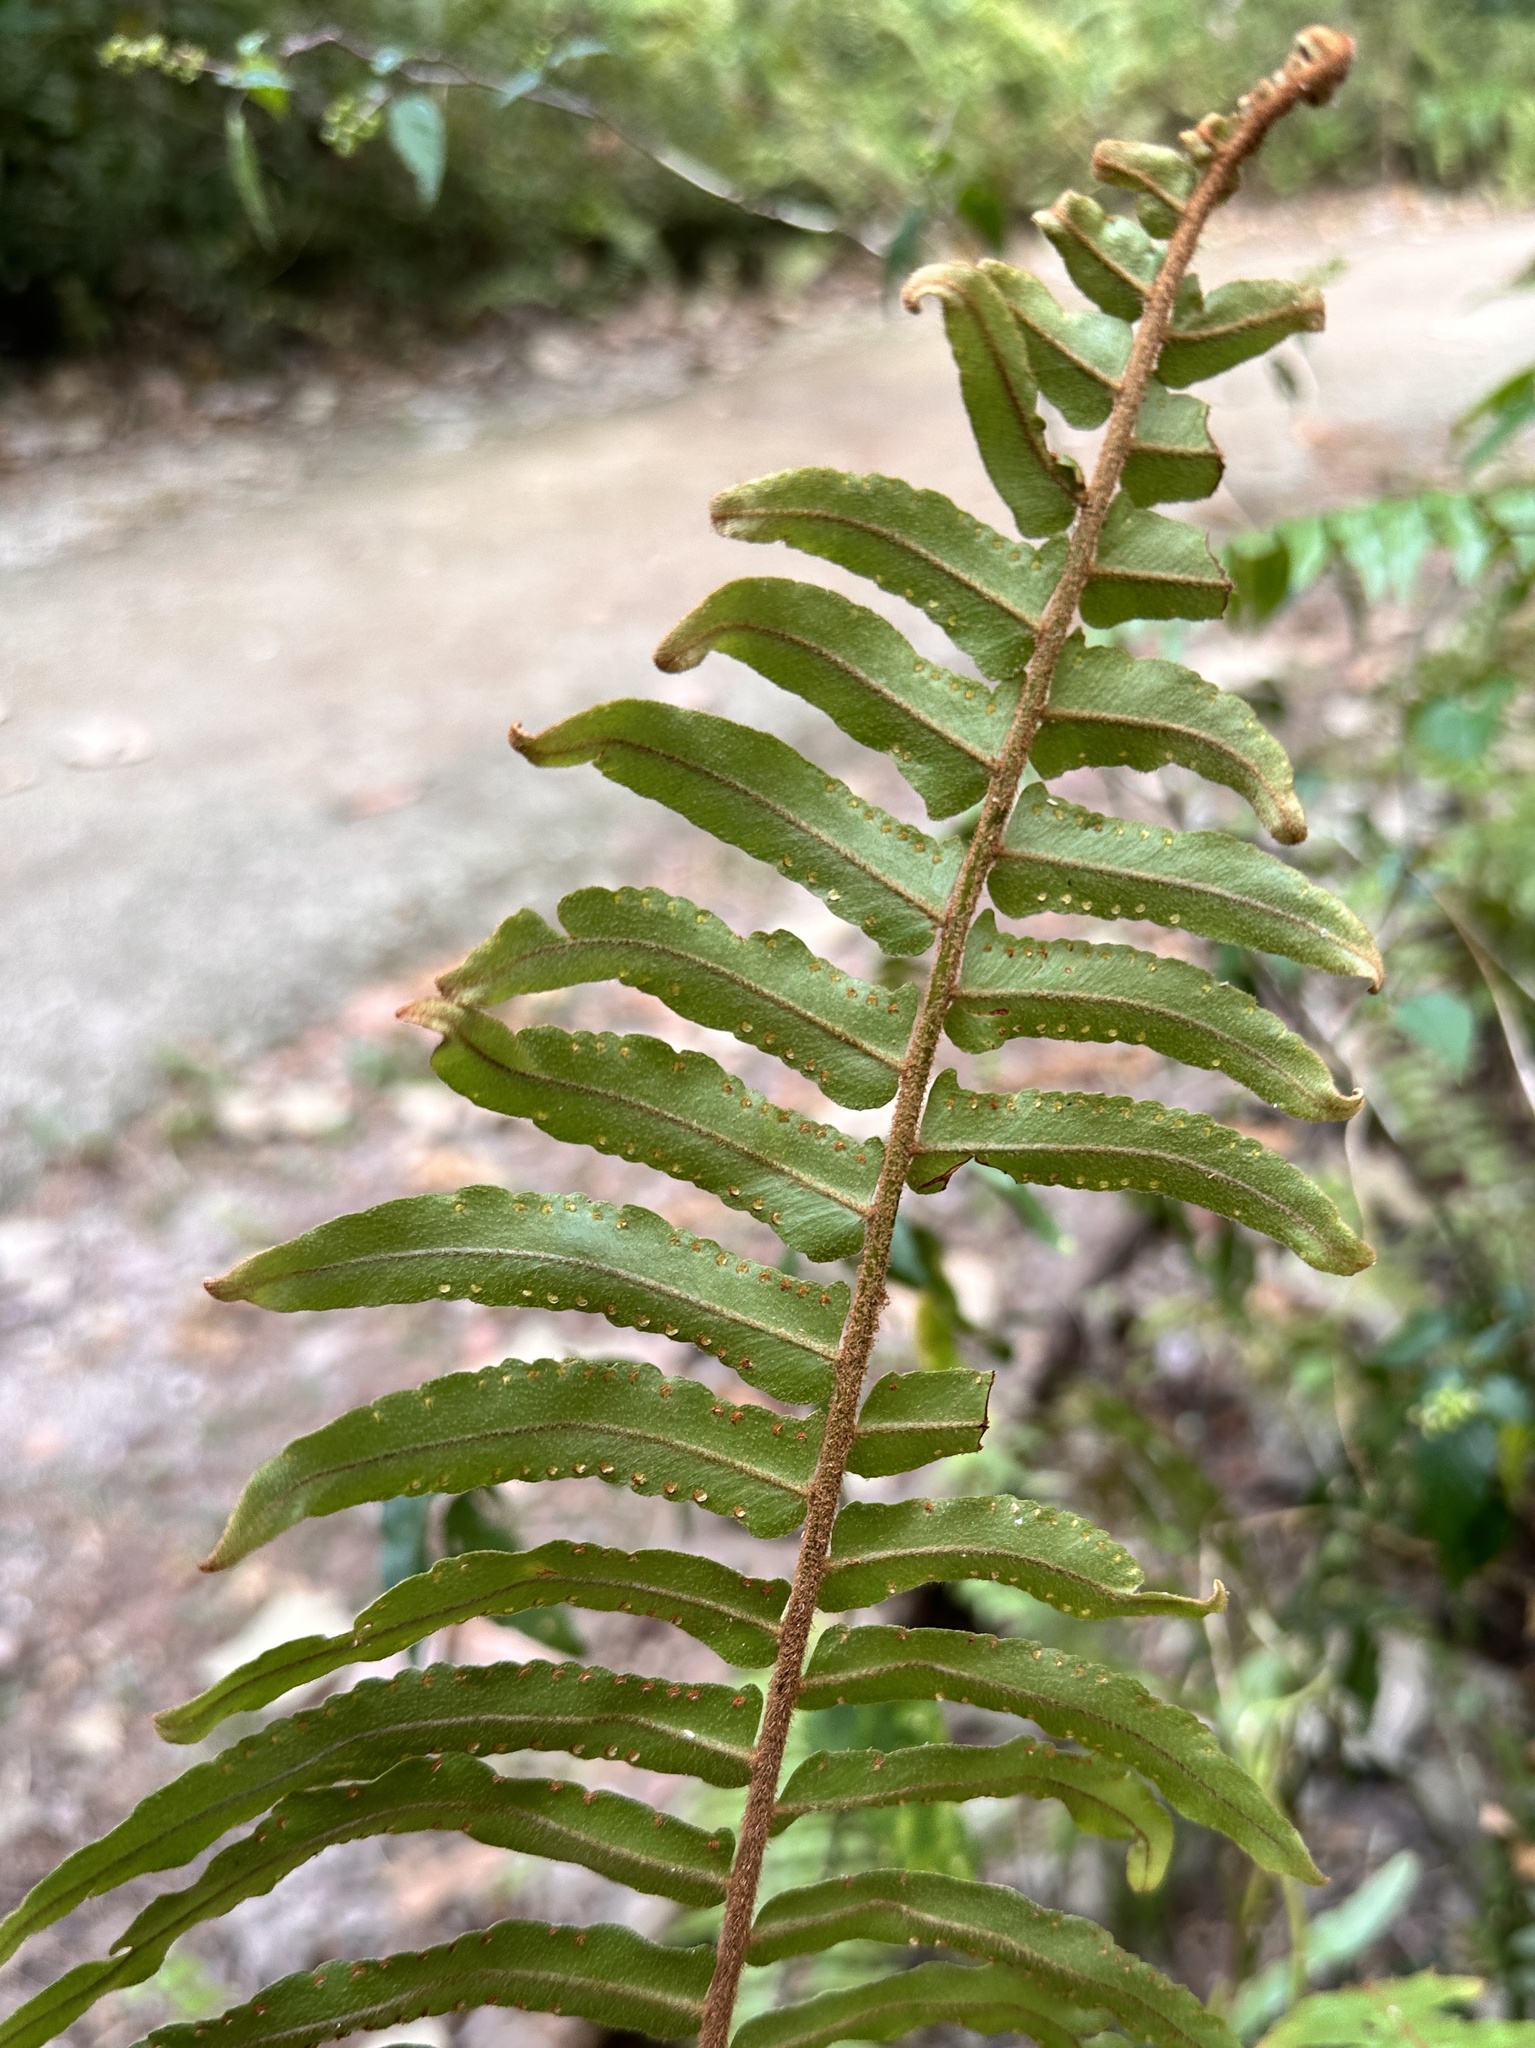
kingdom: Plantae
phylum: Tracheophyta
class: Polypodiopsida
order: Polypodiales
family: Nephrolepidaceae
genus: Nephrolepis
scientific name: Nephrolepis hirsutula
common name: Asian sword fern
